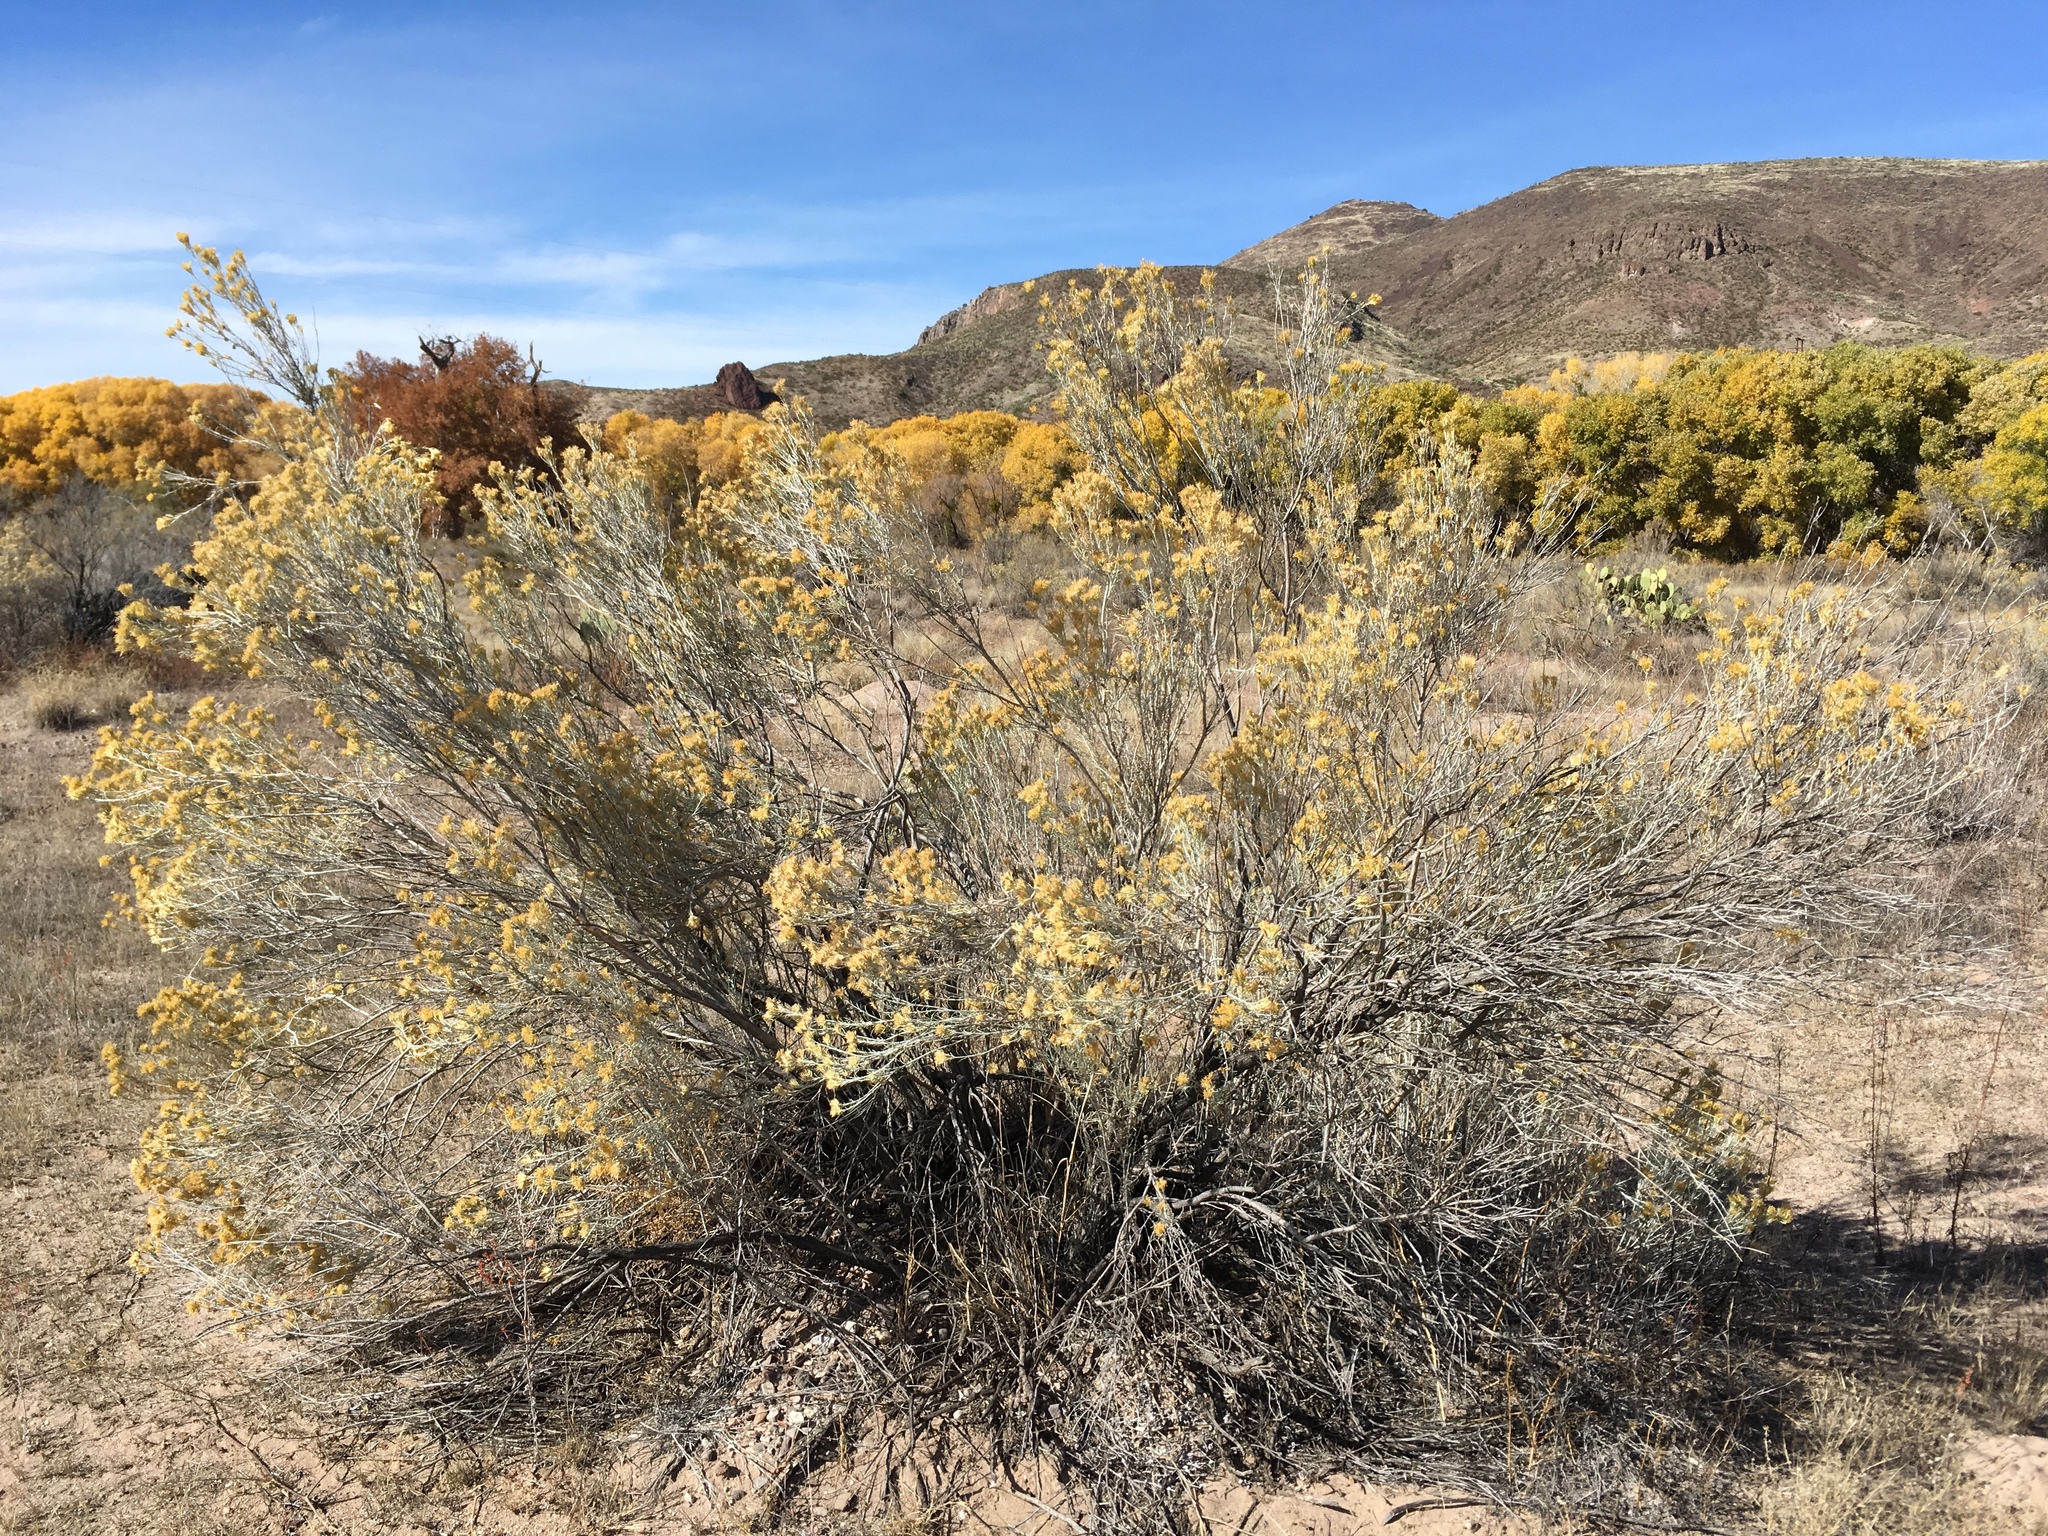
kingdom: Plantae
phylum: Tracheophyta
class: Magnoliopsida
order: Asterales
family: Asteraceae
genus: Ericameria
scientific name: Ericameria nauseosa
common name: Rubber rabbitbrush
